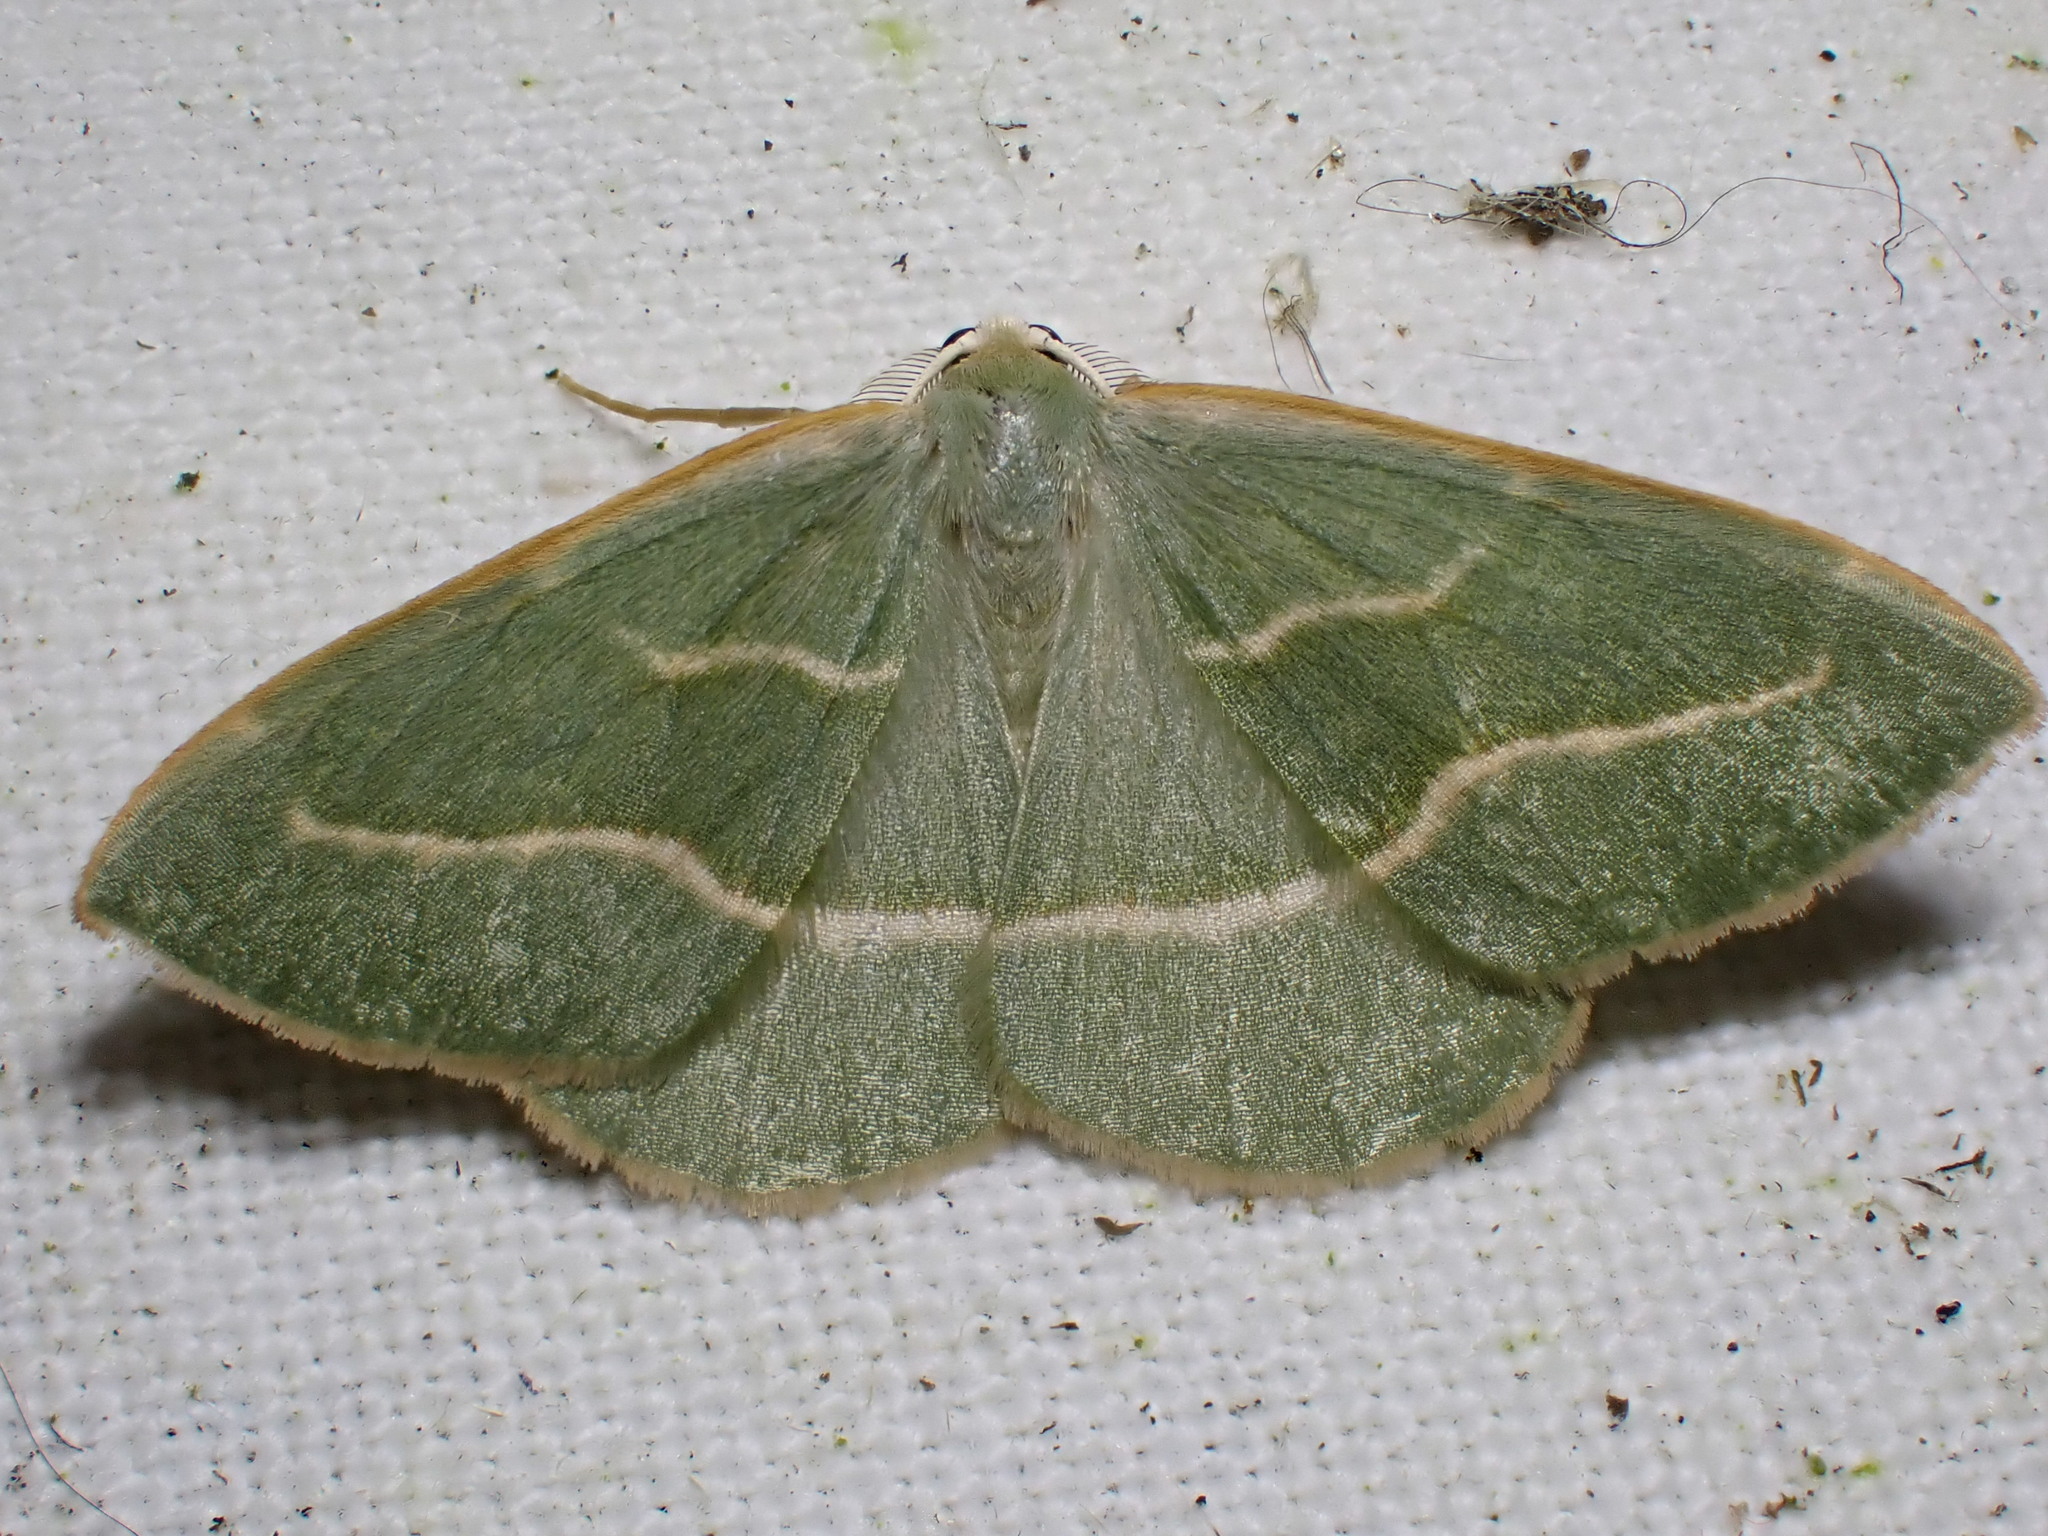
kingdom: Animalia
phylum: Arthropoda
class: Insecta
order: Lepidoptera
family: Geometridae
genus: Hylaea
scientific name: Hylaea fasciaria
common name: Barred red
